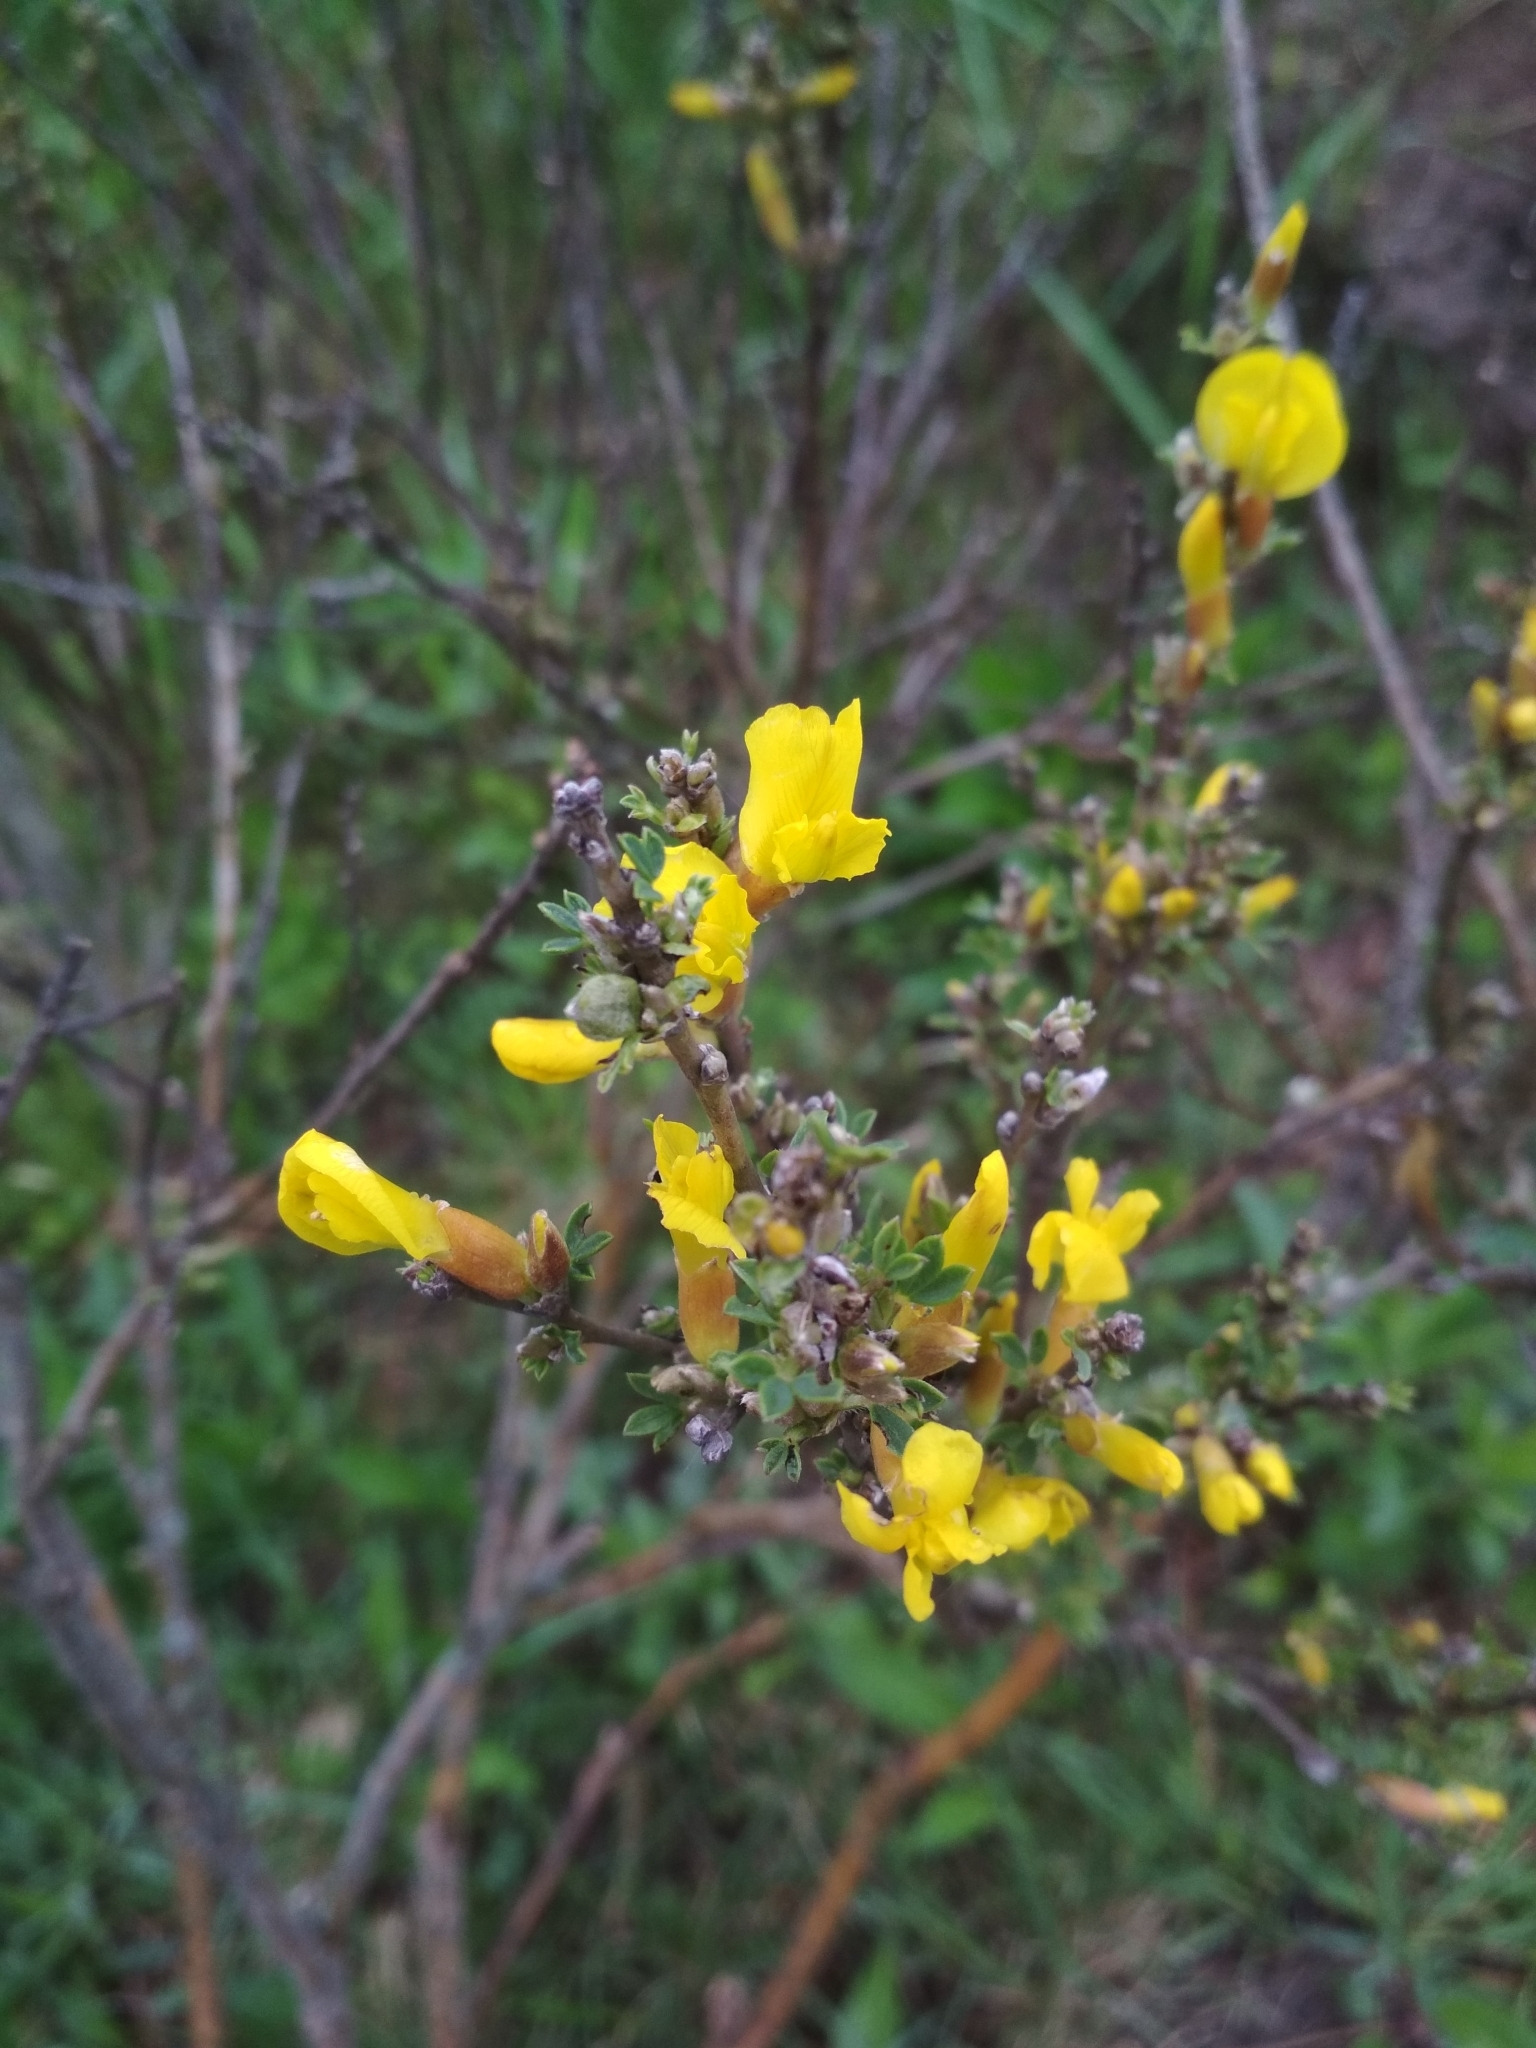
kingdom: Plantae
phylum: Tracheophyta
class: Magnoliopsida
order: Fabales
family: Fabaceae
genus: Chamaecytisus
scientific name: Chamaecytisus ruthenicus
